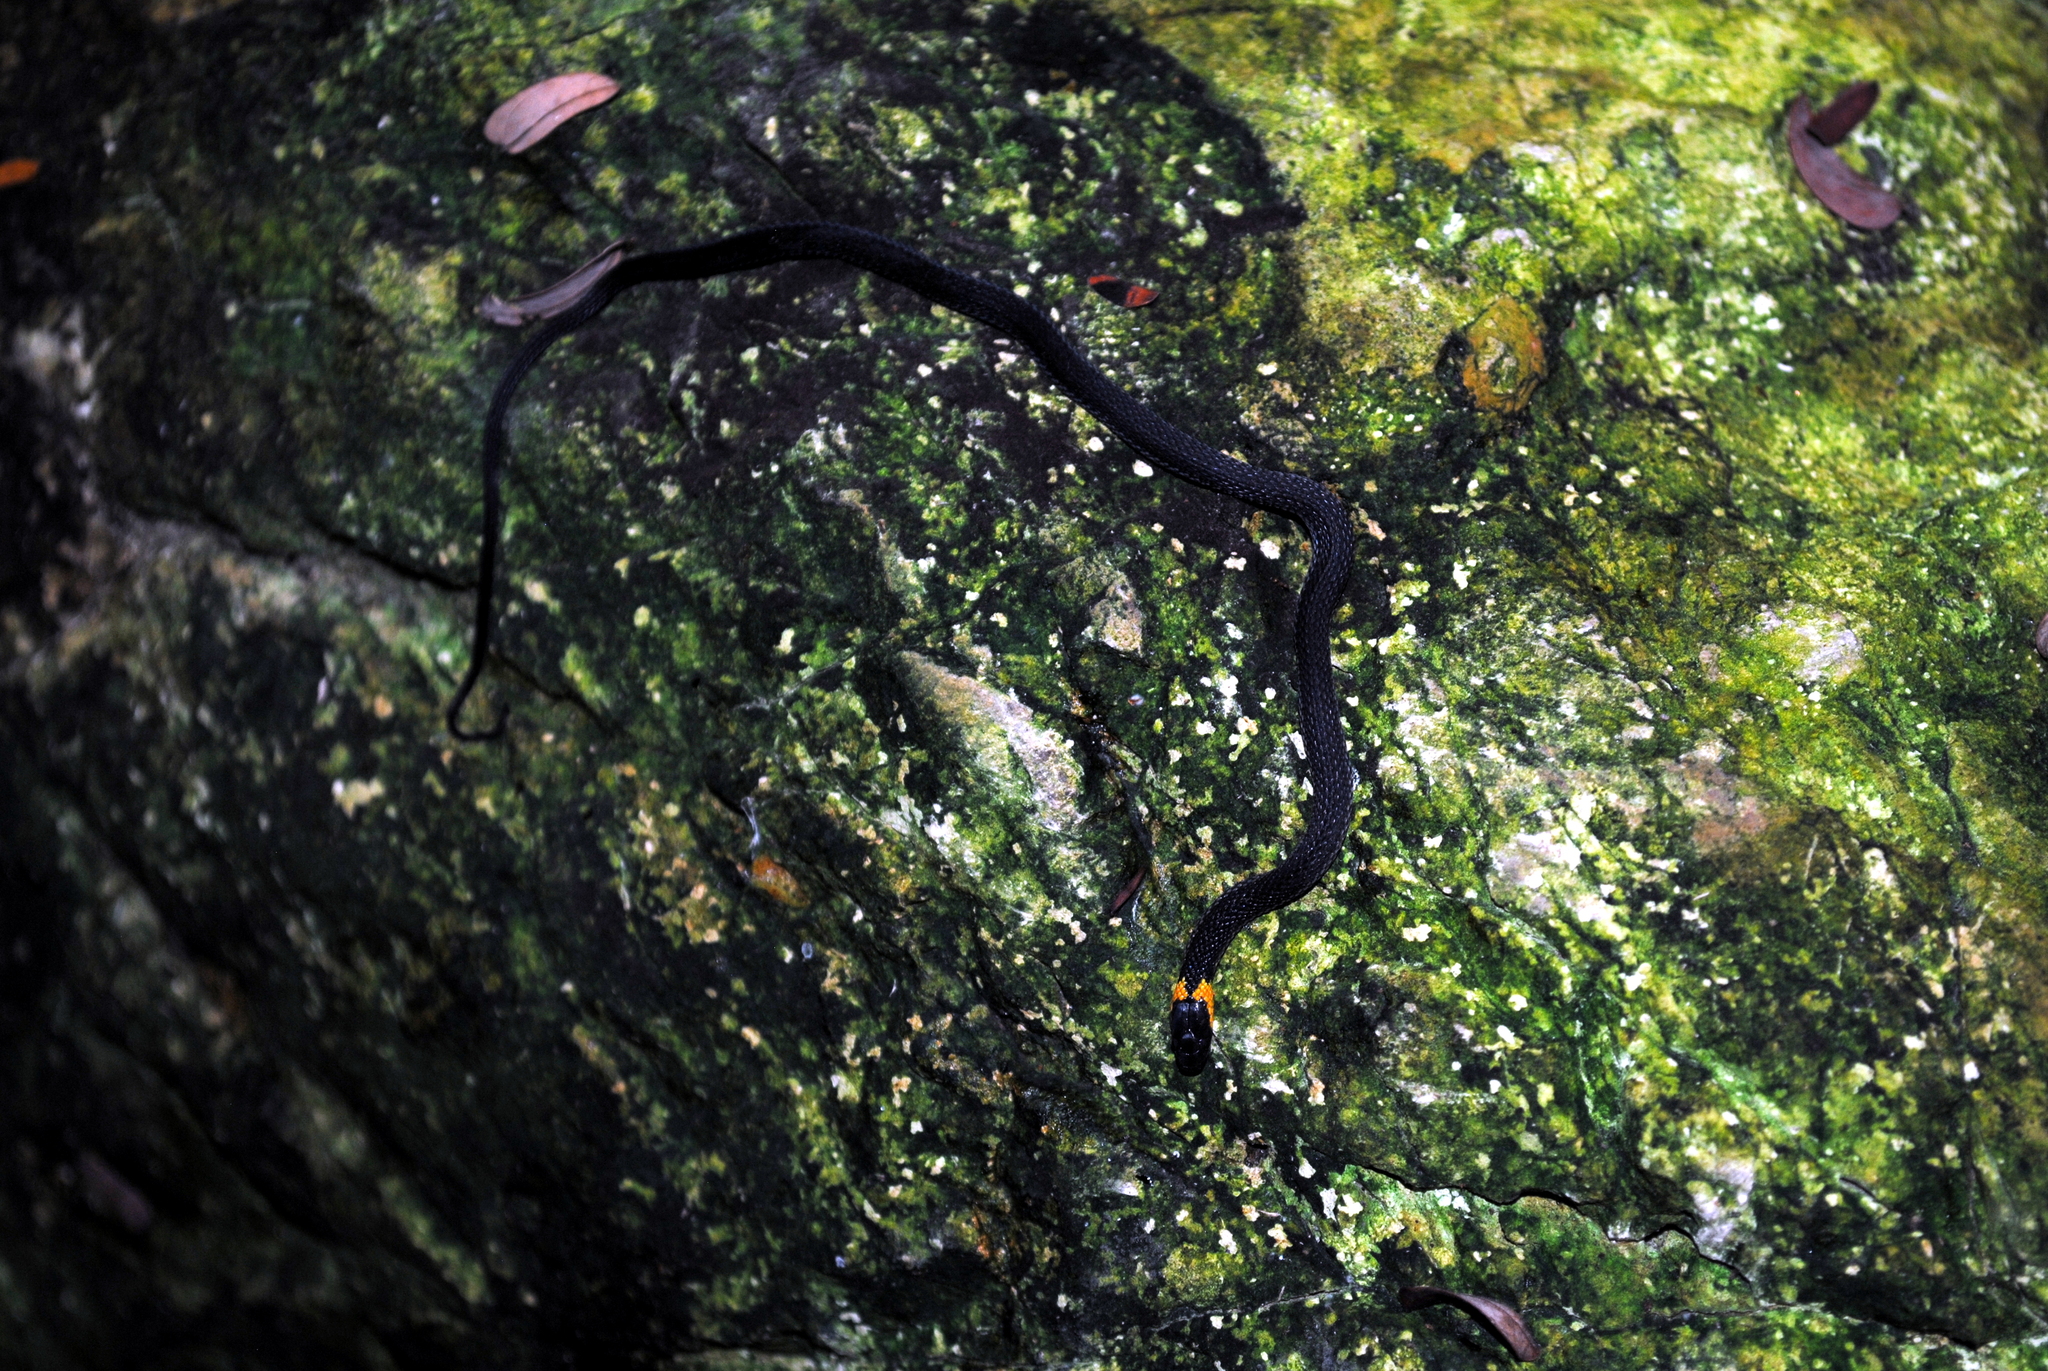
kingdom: Animalia
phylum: Chordata
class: Squamata
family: Colubridae
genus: Ninia
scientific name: Ninia diademata
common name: Ringneck coffee snake
